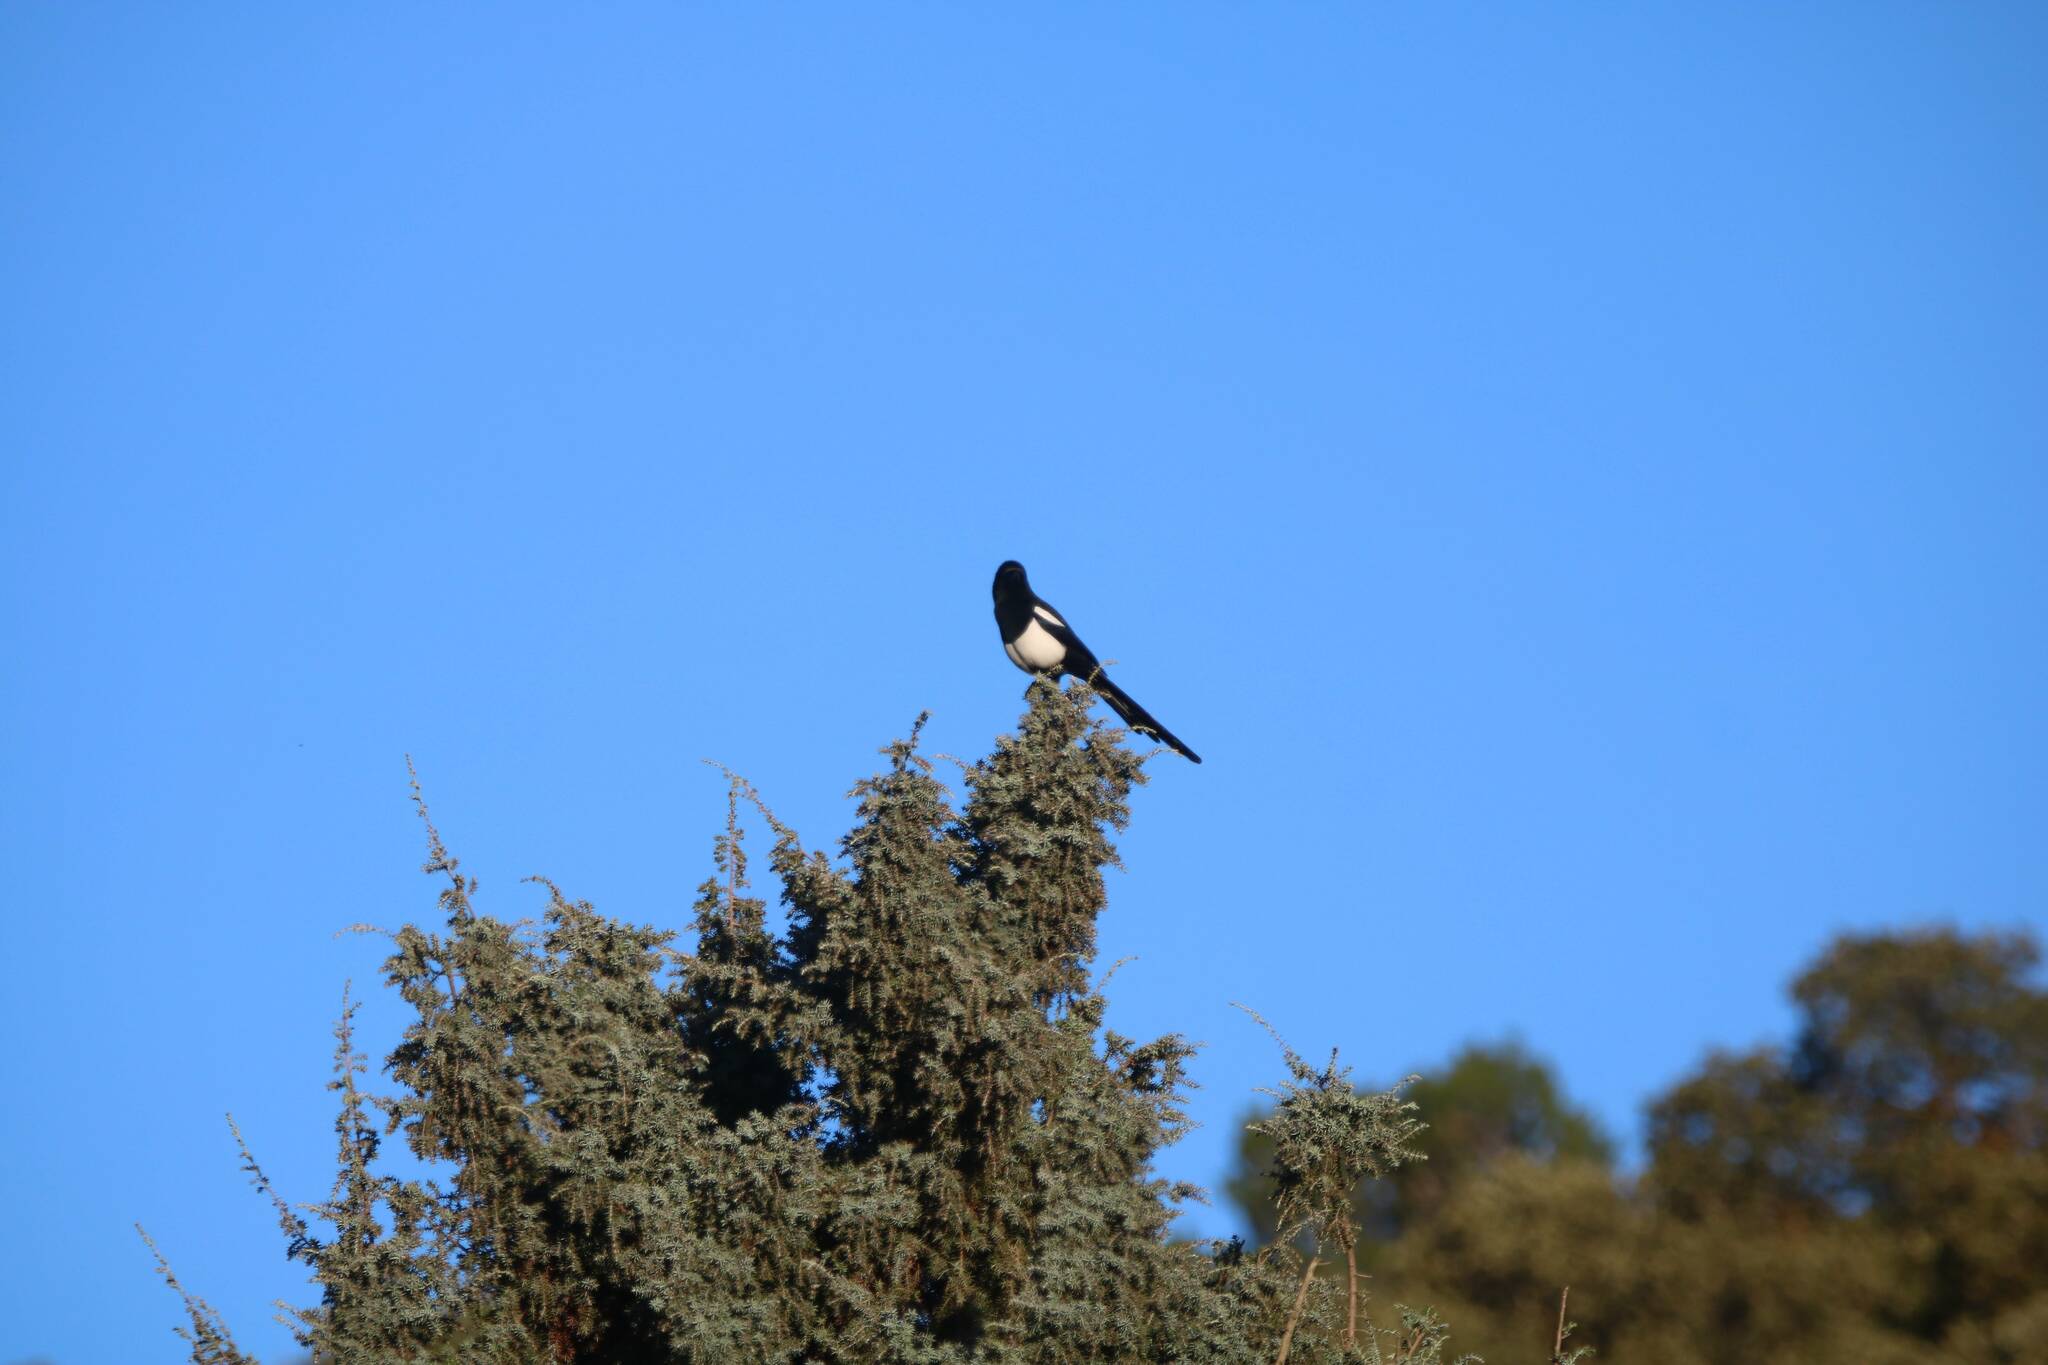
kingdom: Animalia
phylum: Chordata
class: Aves
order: Passeriformes
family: Corvidae
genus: Pica
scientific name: Pica mauritanica
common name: Maghreb magpie
